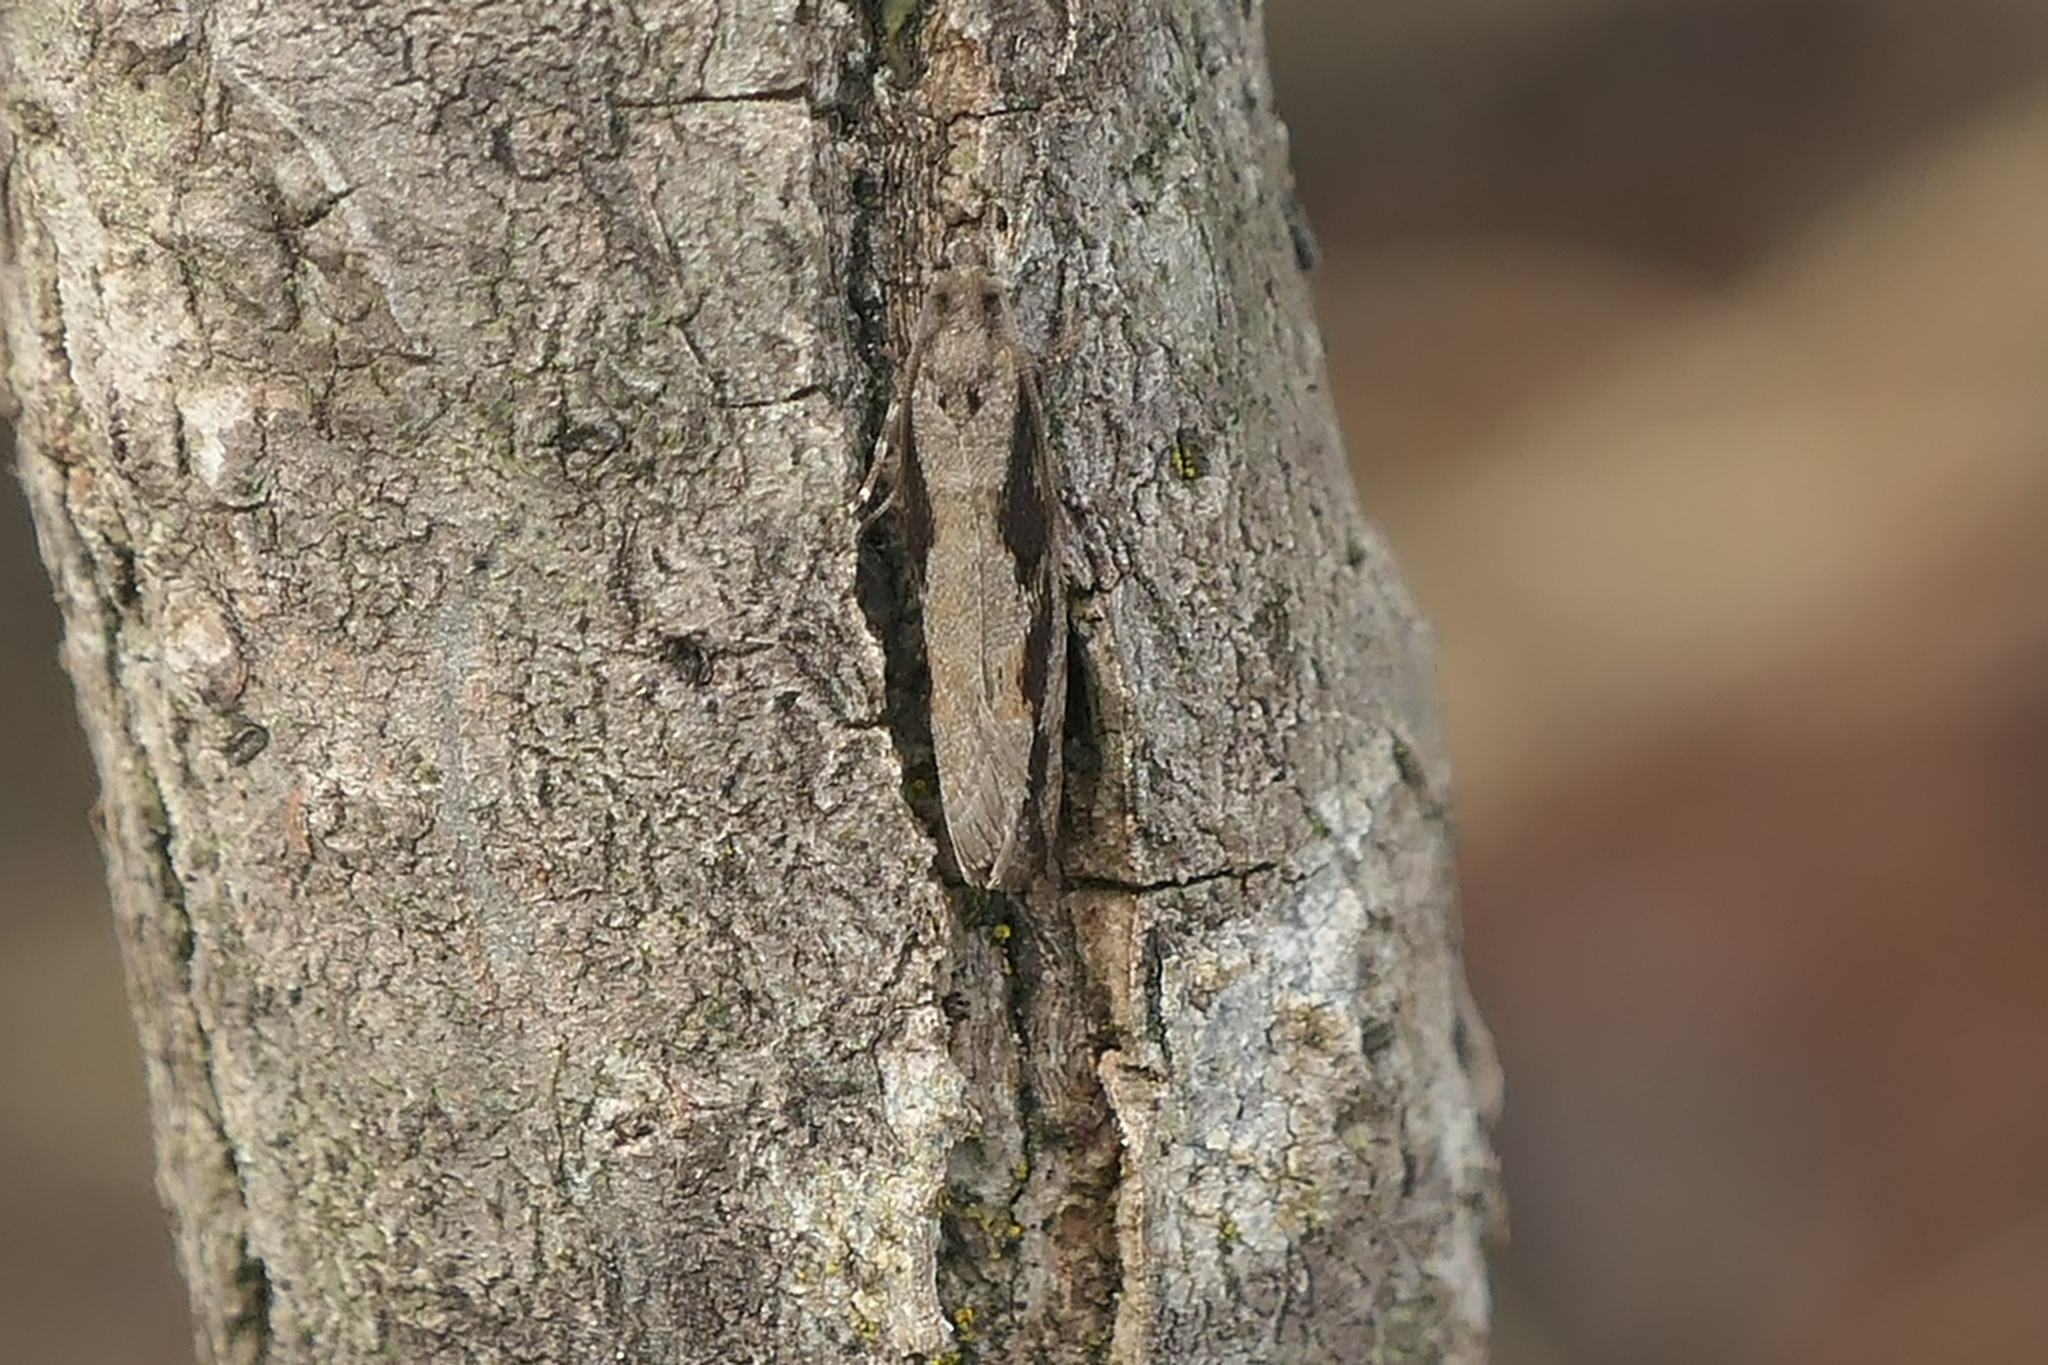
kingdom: Animalia
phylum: Arthropoda
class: Insecta
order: Lepidoptera
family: Tortricidae
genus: Epinotia
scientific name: Epinotia zandana
